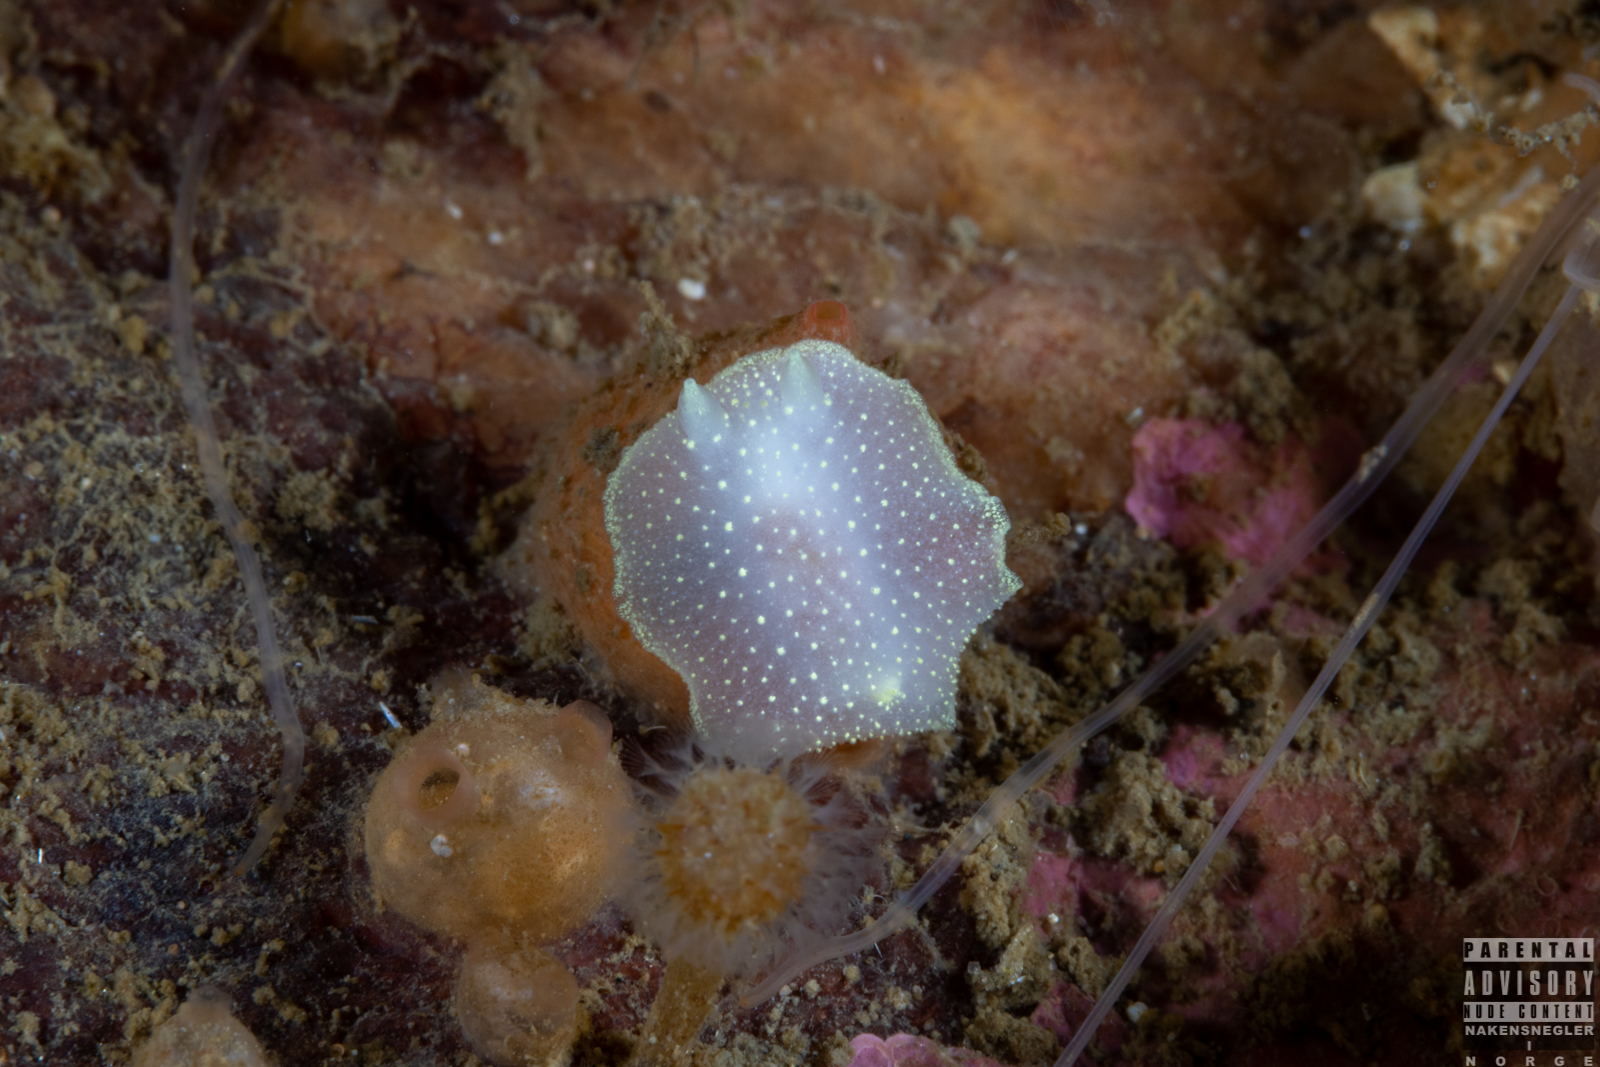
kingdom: Animalia
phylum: Mollusca
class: Gastropoda
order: Nudibranchia
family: Cadlinidae
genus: Cadlina
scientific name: Cadlina laevis
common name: White atlantic cadlina
